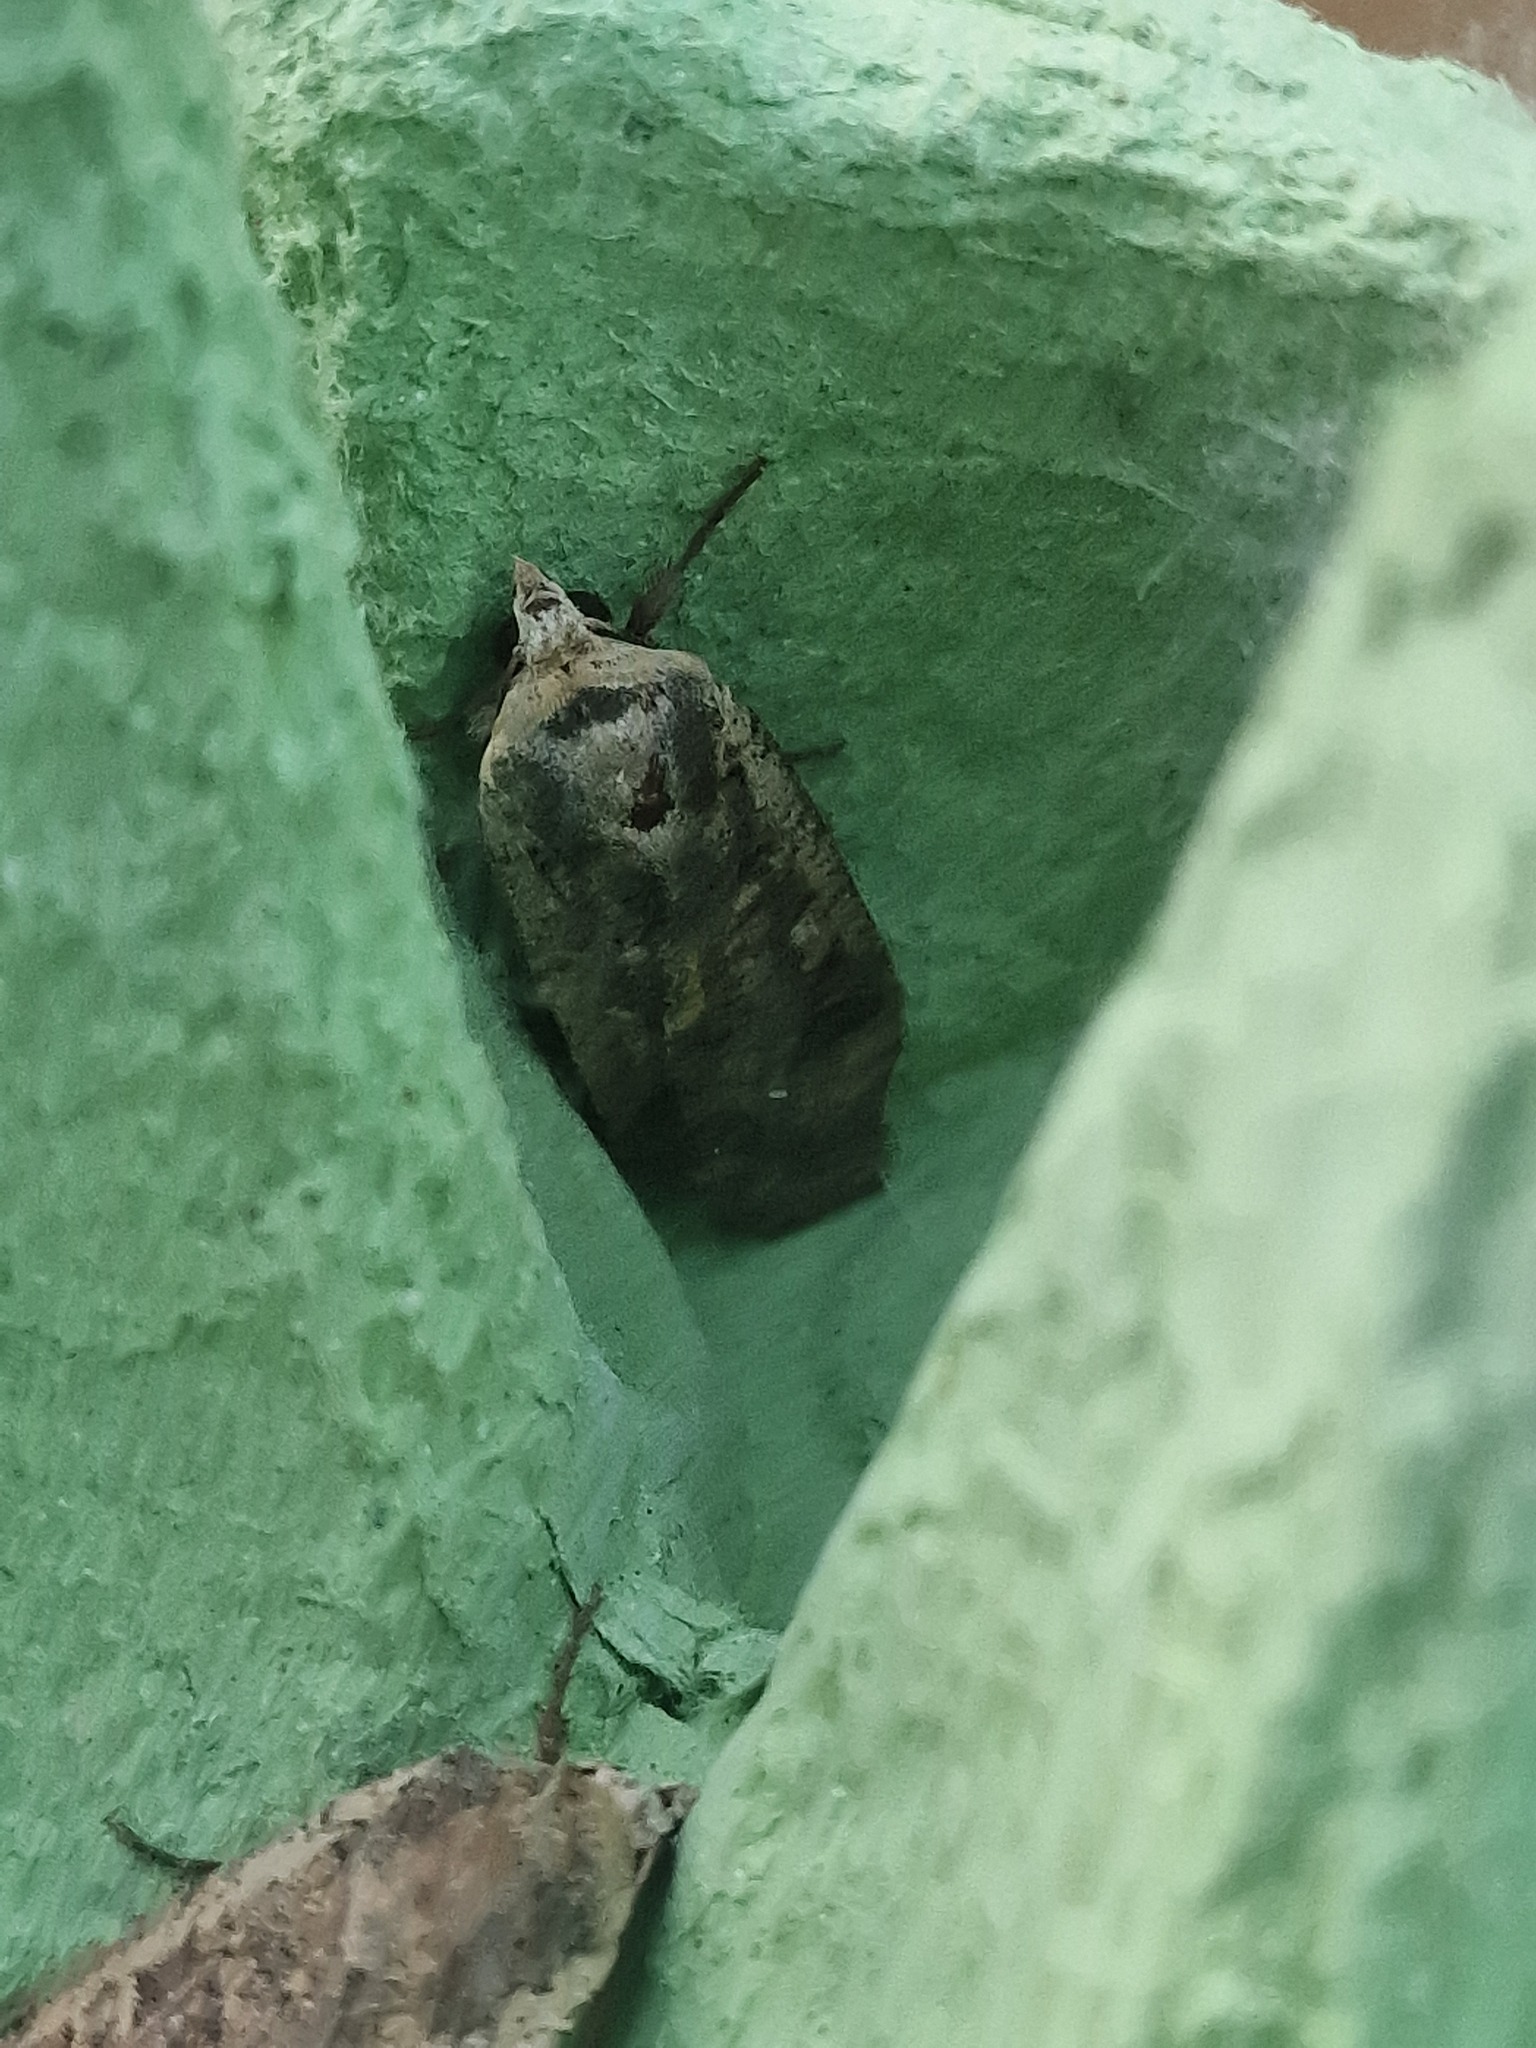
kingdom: Animalia
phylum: Arthropoda
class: Insecta
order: Lepidoptera
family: Noctuidae
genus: Noctua
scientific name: Noctua pronuba
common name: Large yellow underwing
